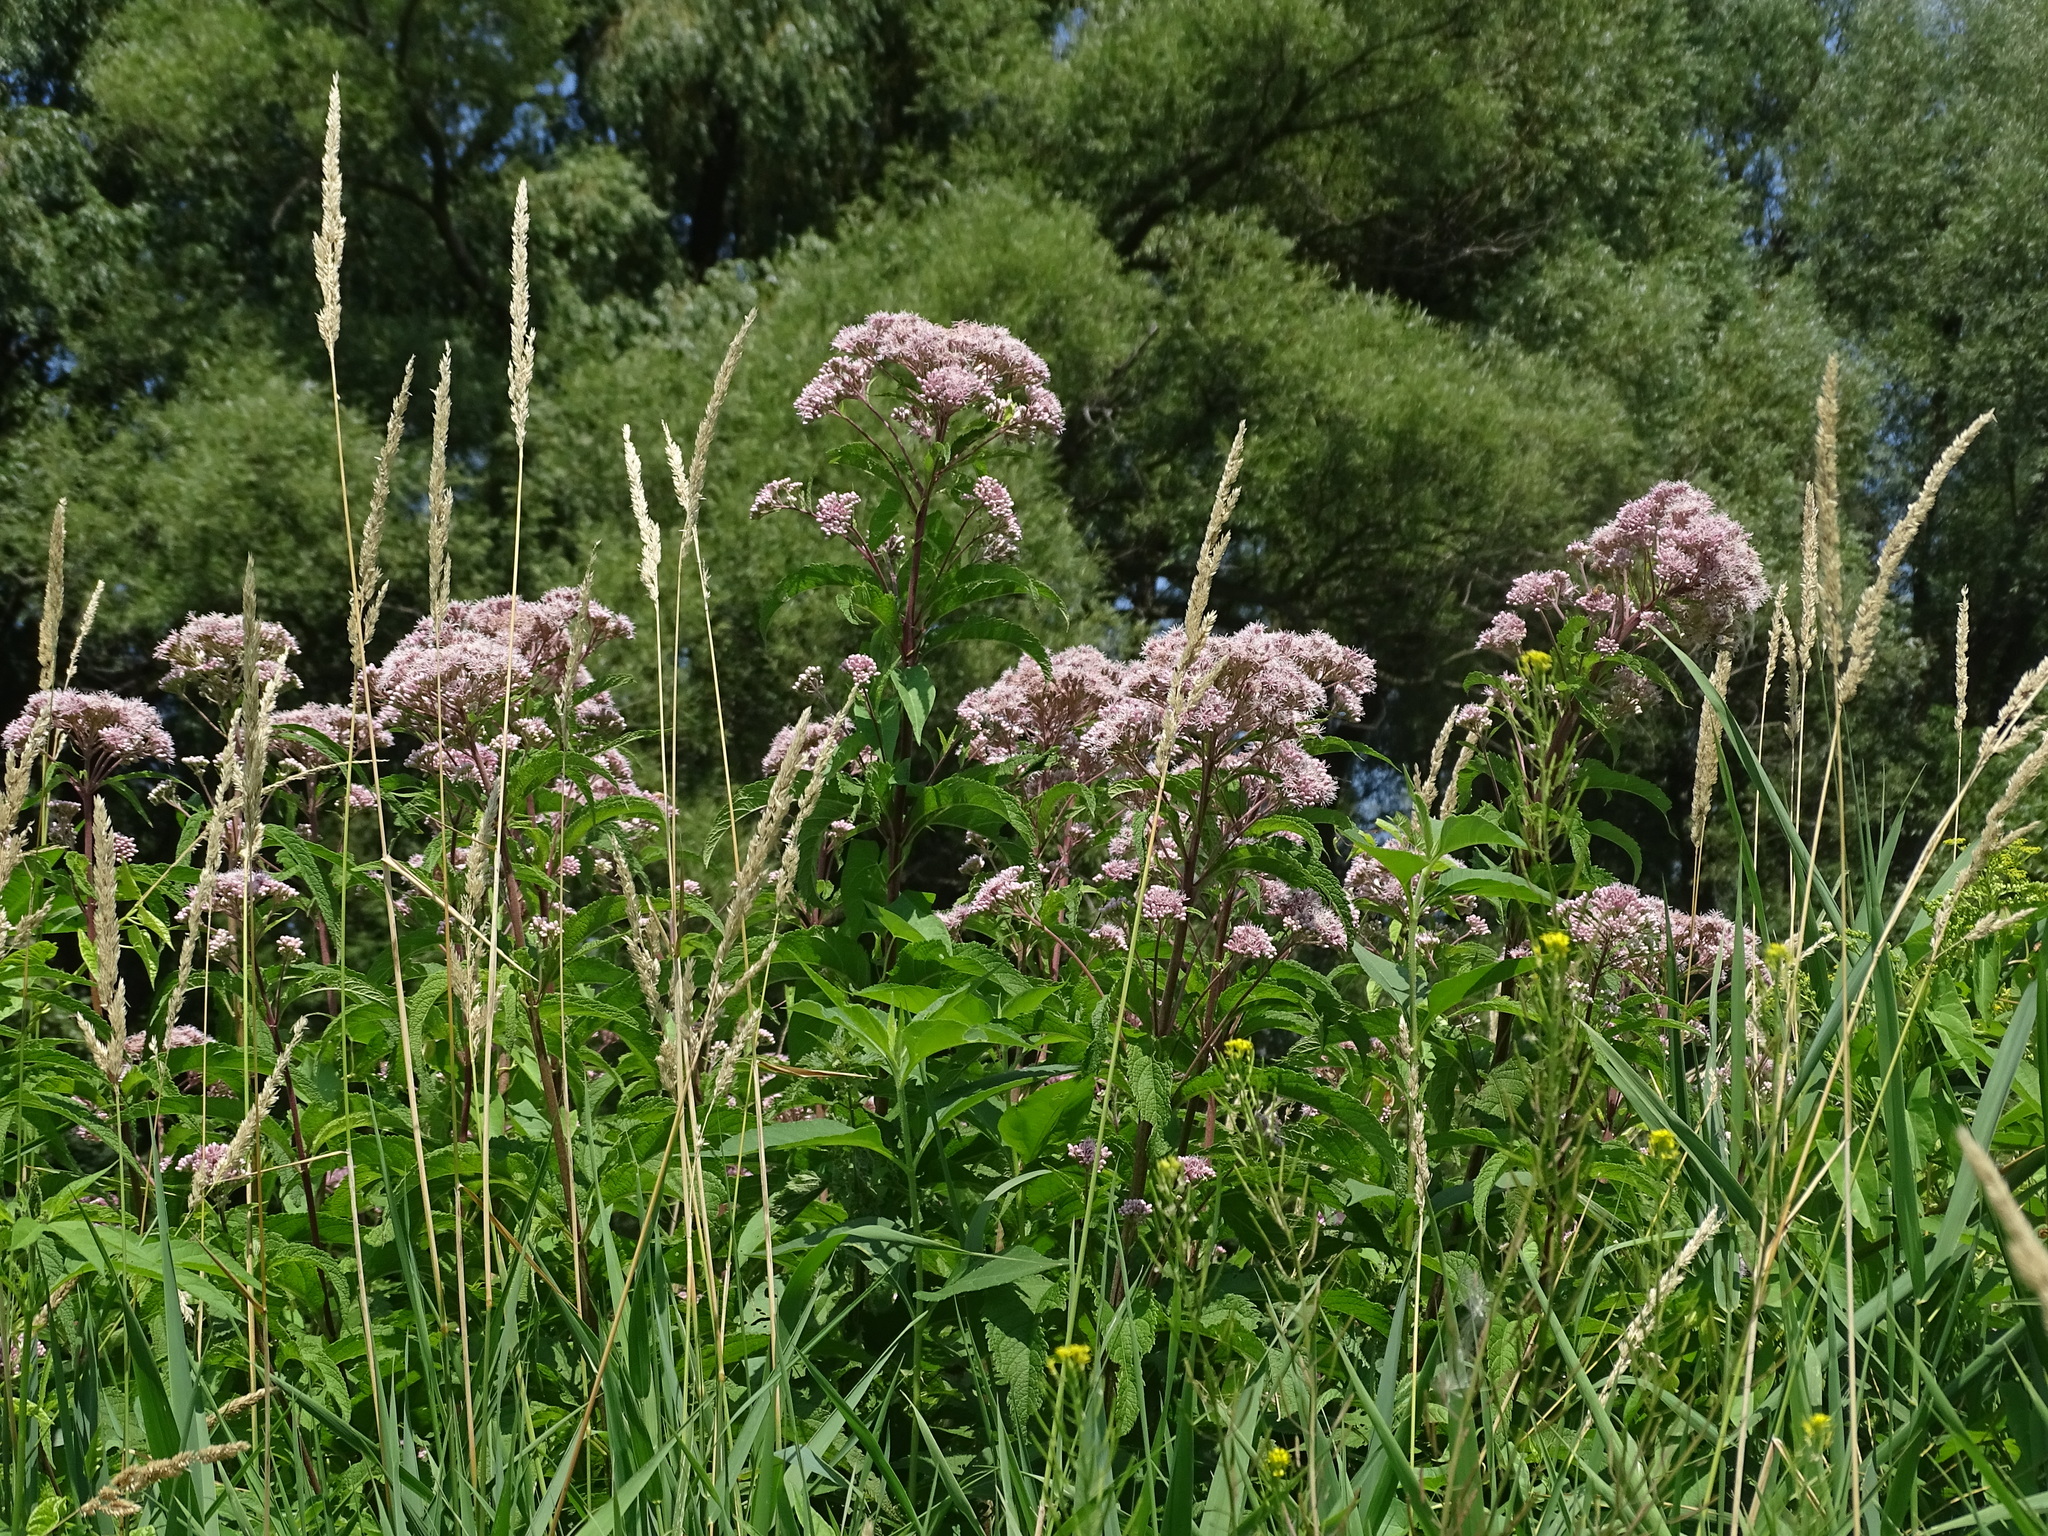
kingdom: Plantae
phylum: Tracheophyta
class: Magnoliopsida
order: Asterales
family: Asteraceae
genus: Eutrochium
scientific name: Eutrochium maculatum
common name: Spotted joe pye weed
